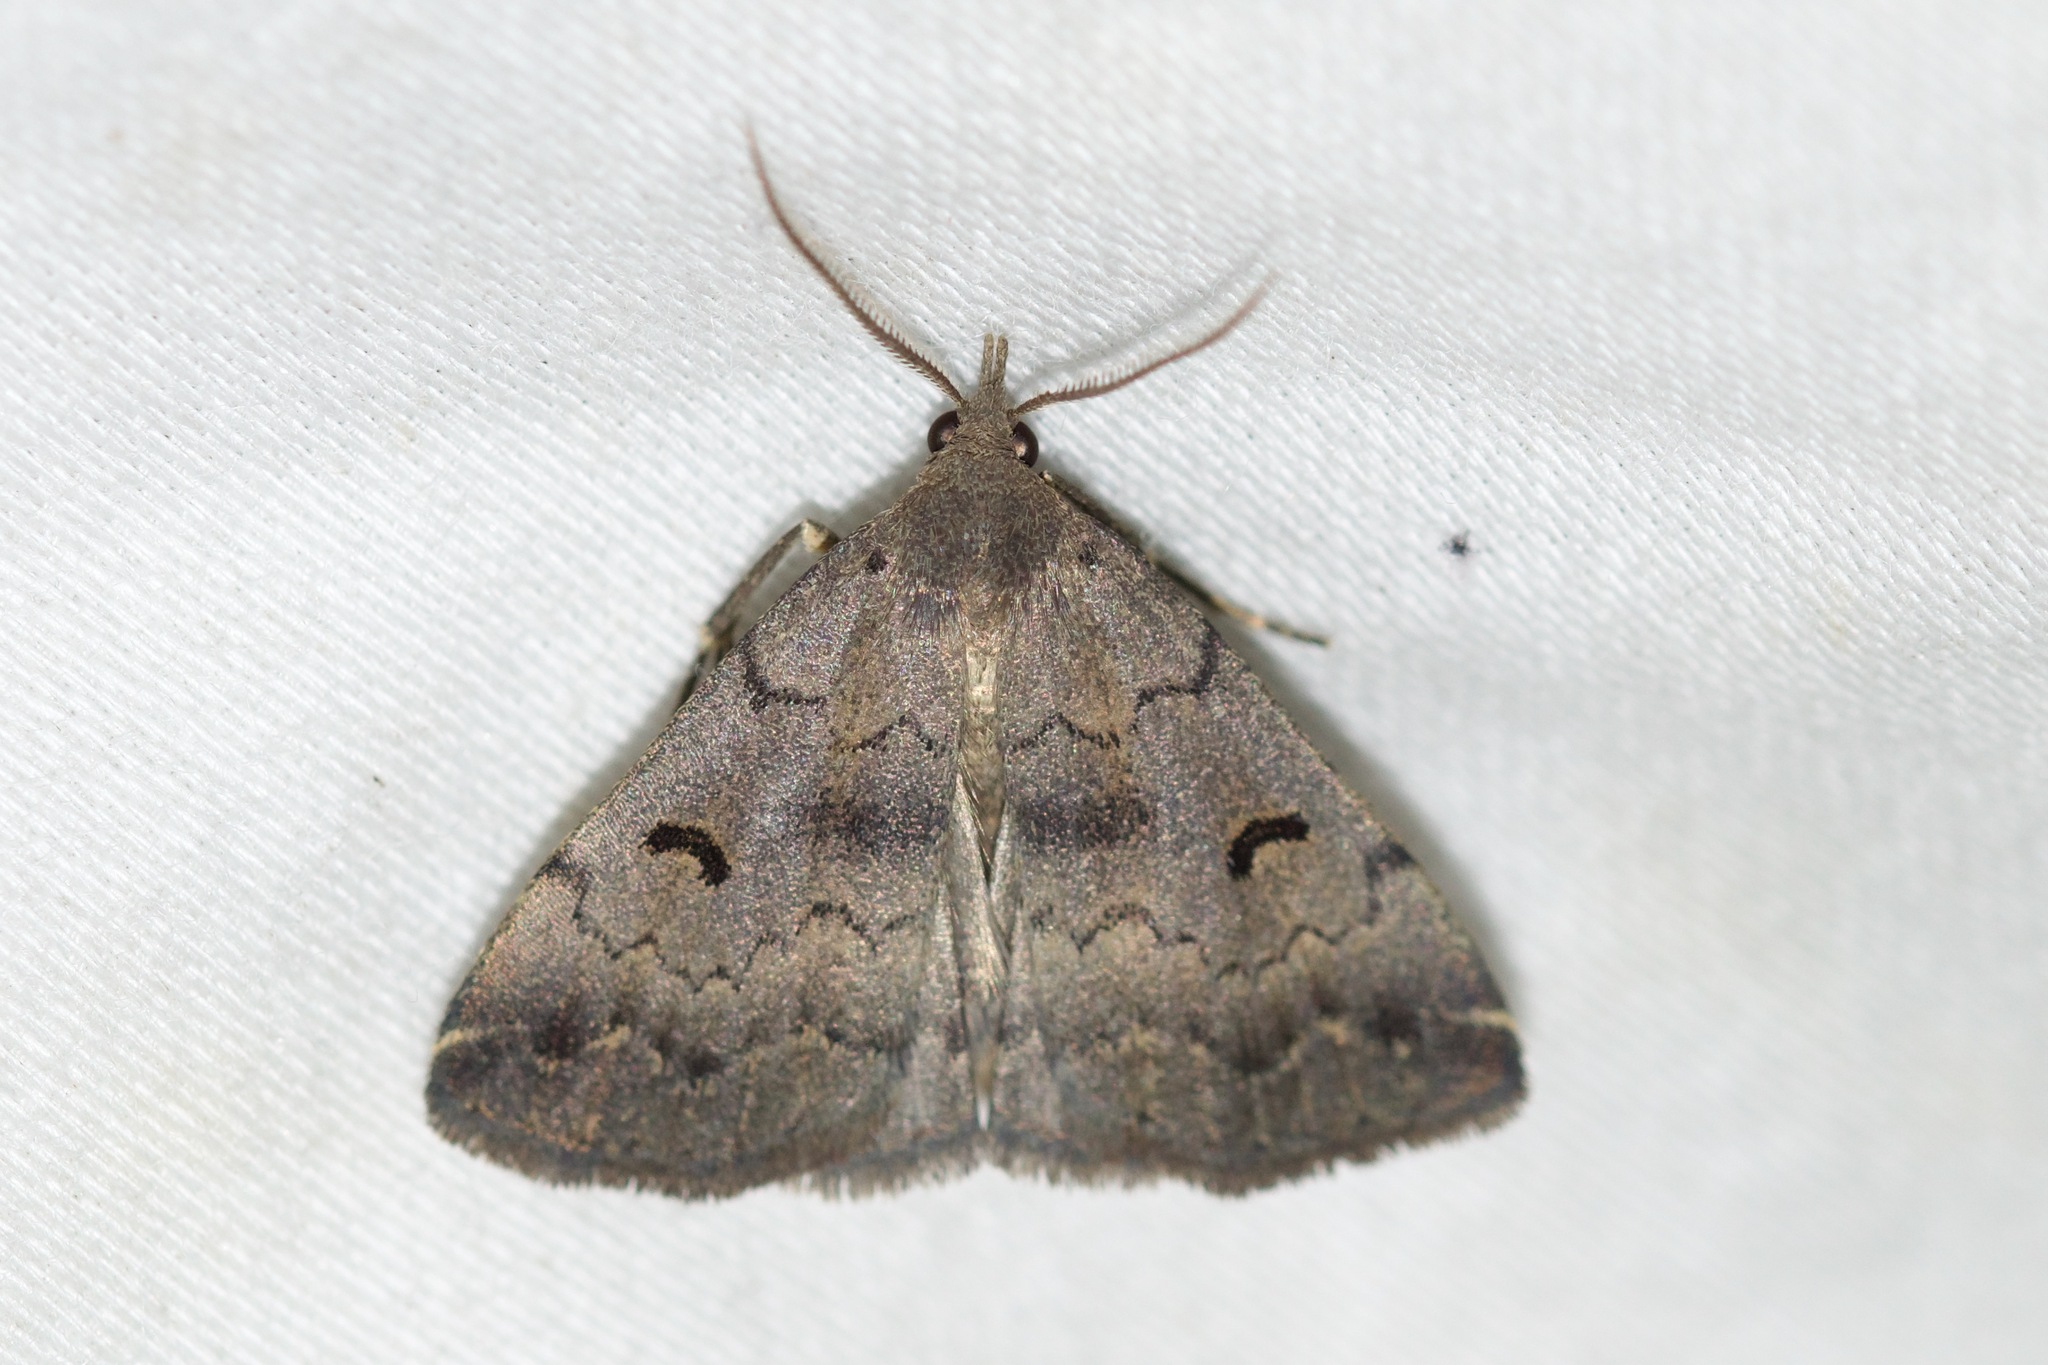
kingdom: Animalia
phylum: Arthropoda
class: Insecta
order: Lepidoptera
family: Erebidae
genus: Phalaenostola
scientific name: Phalaenostola hanhami
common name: Hanham's owlet
